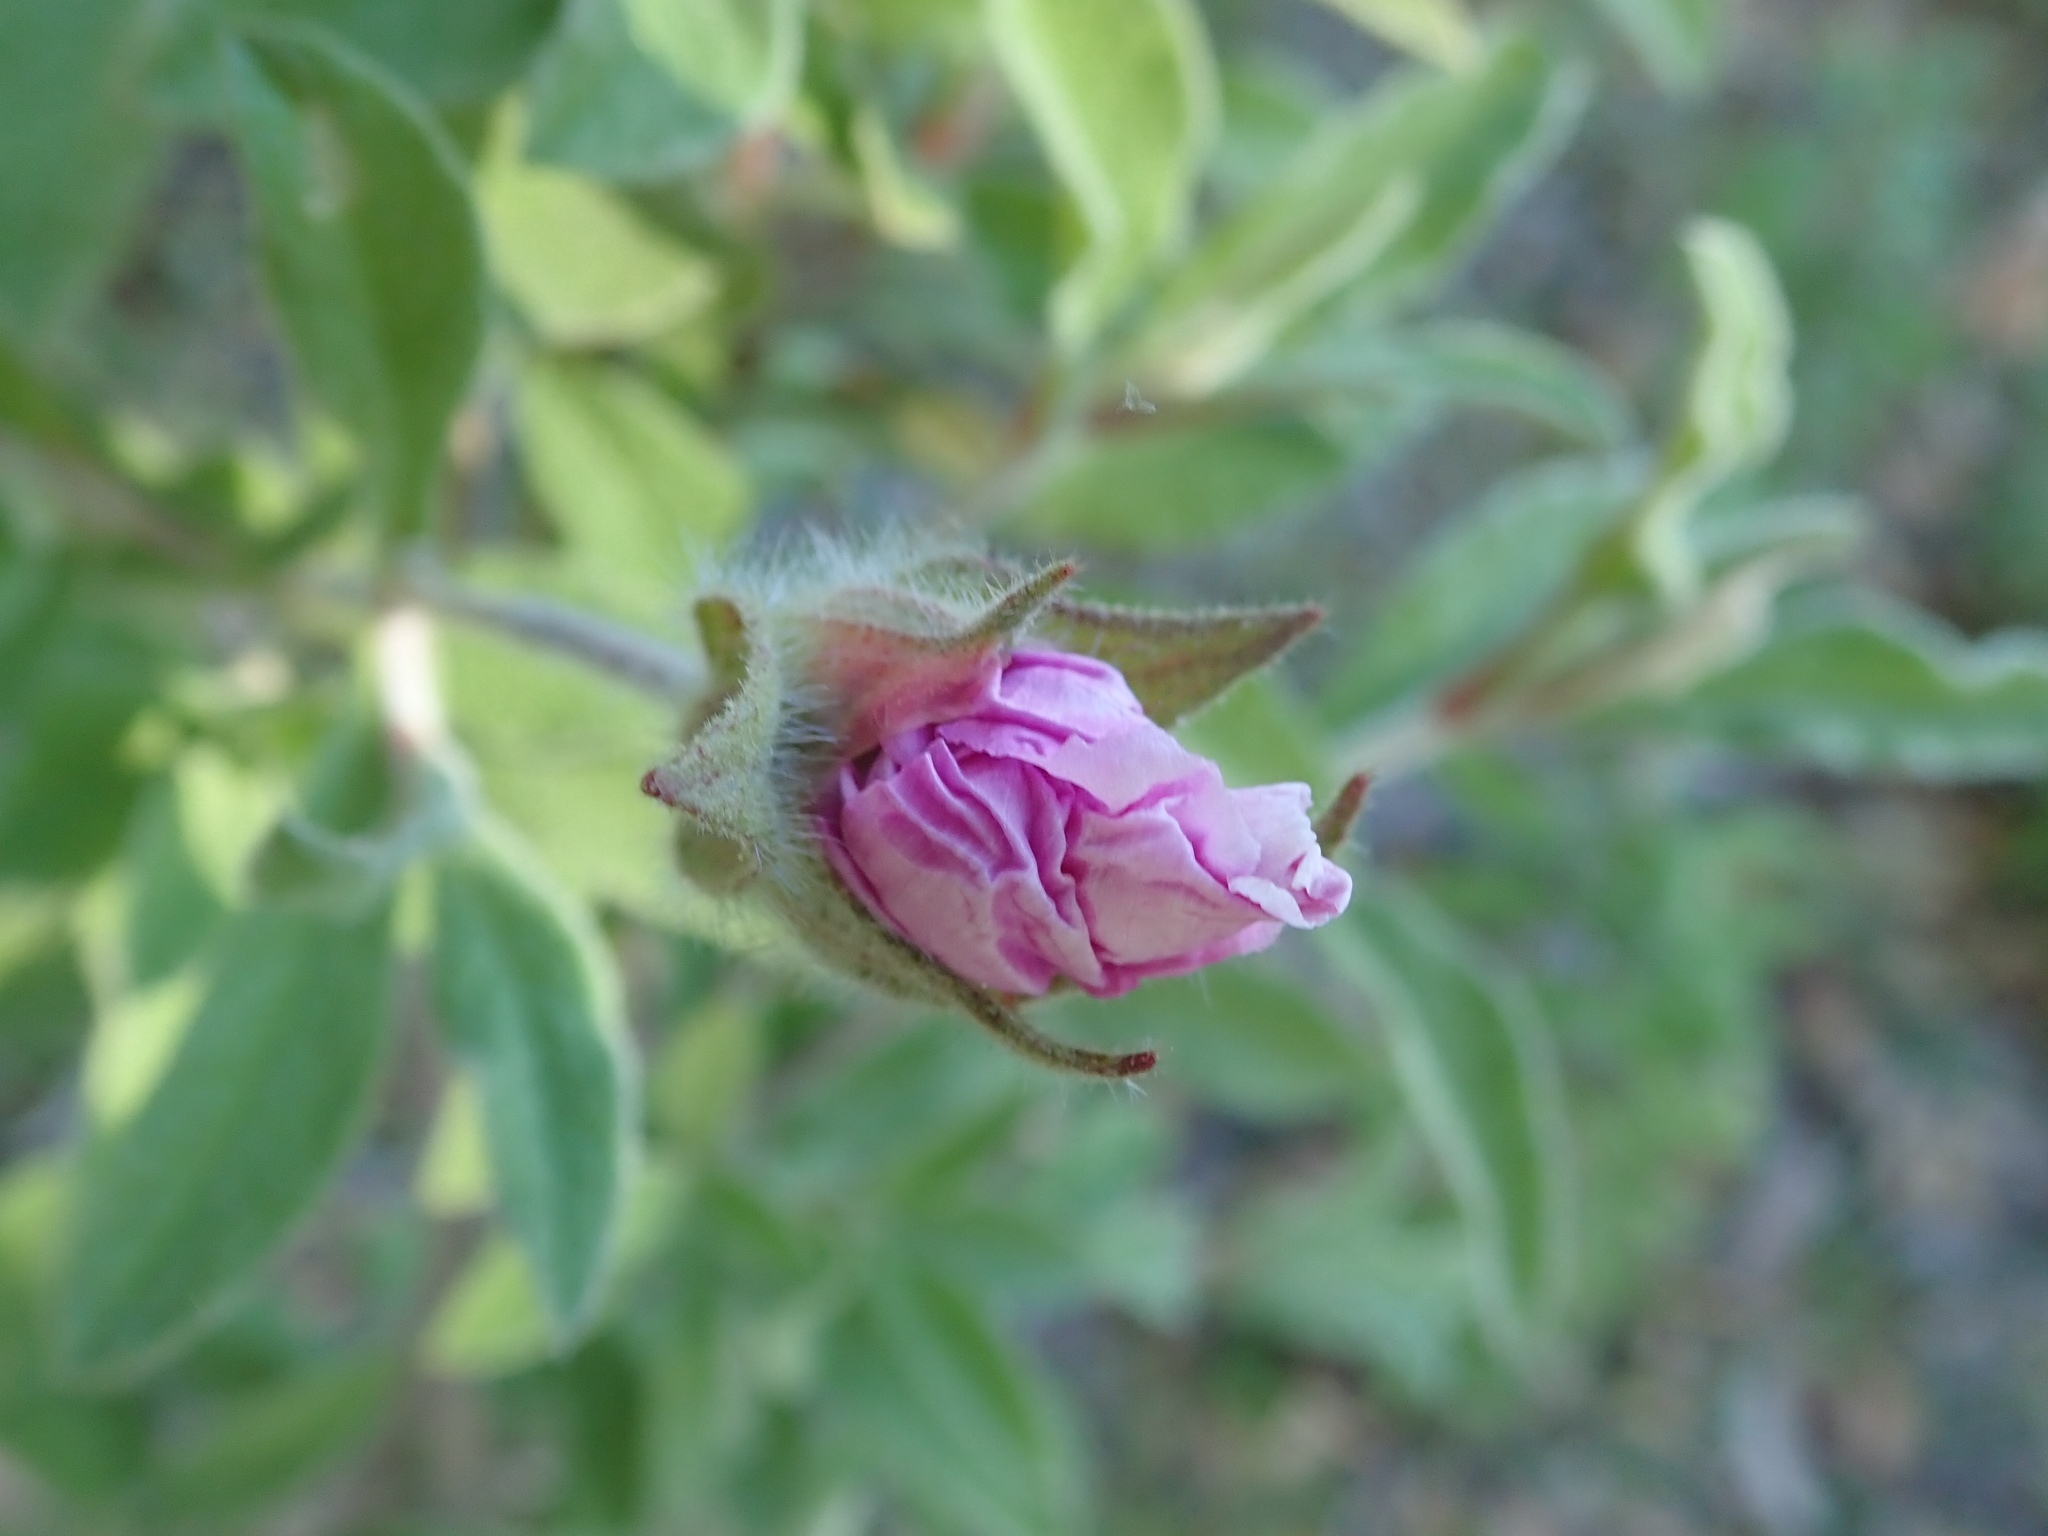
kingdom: Plantae
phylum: Tracheophyta
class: Magnoliopsida
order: Malvales
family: Cistaceae
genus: Cistus
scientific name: Cistus creticus
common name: Cretan rockrose
